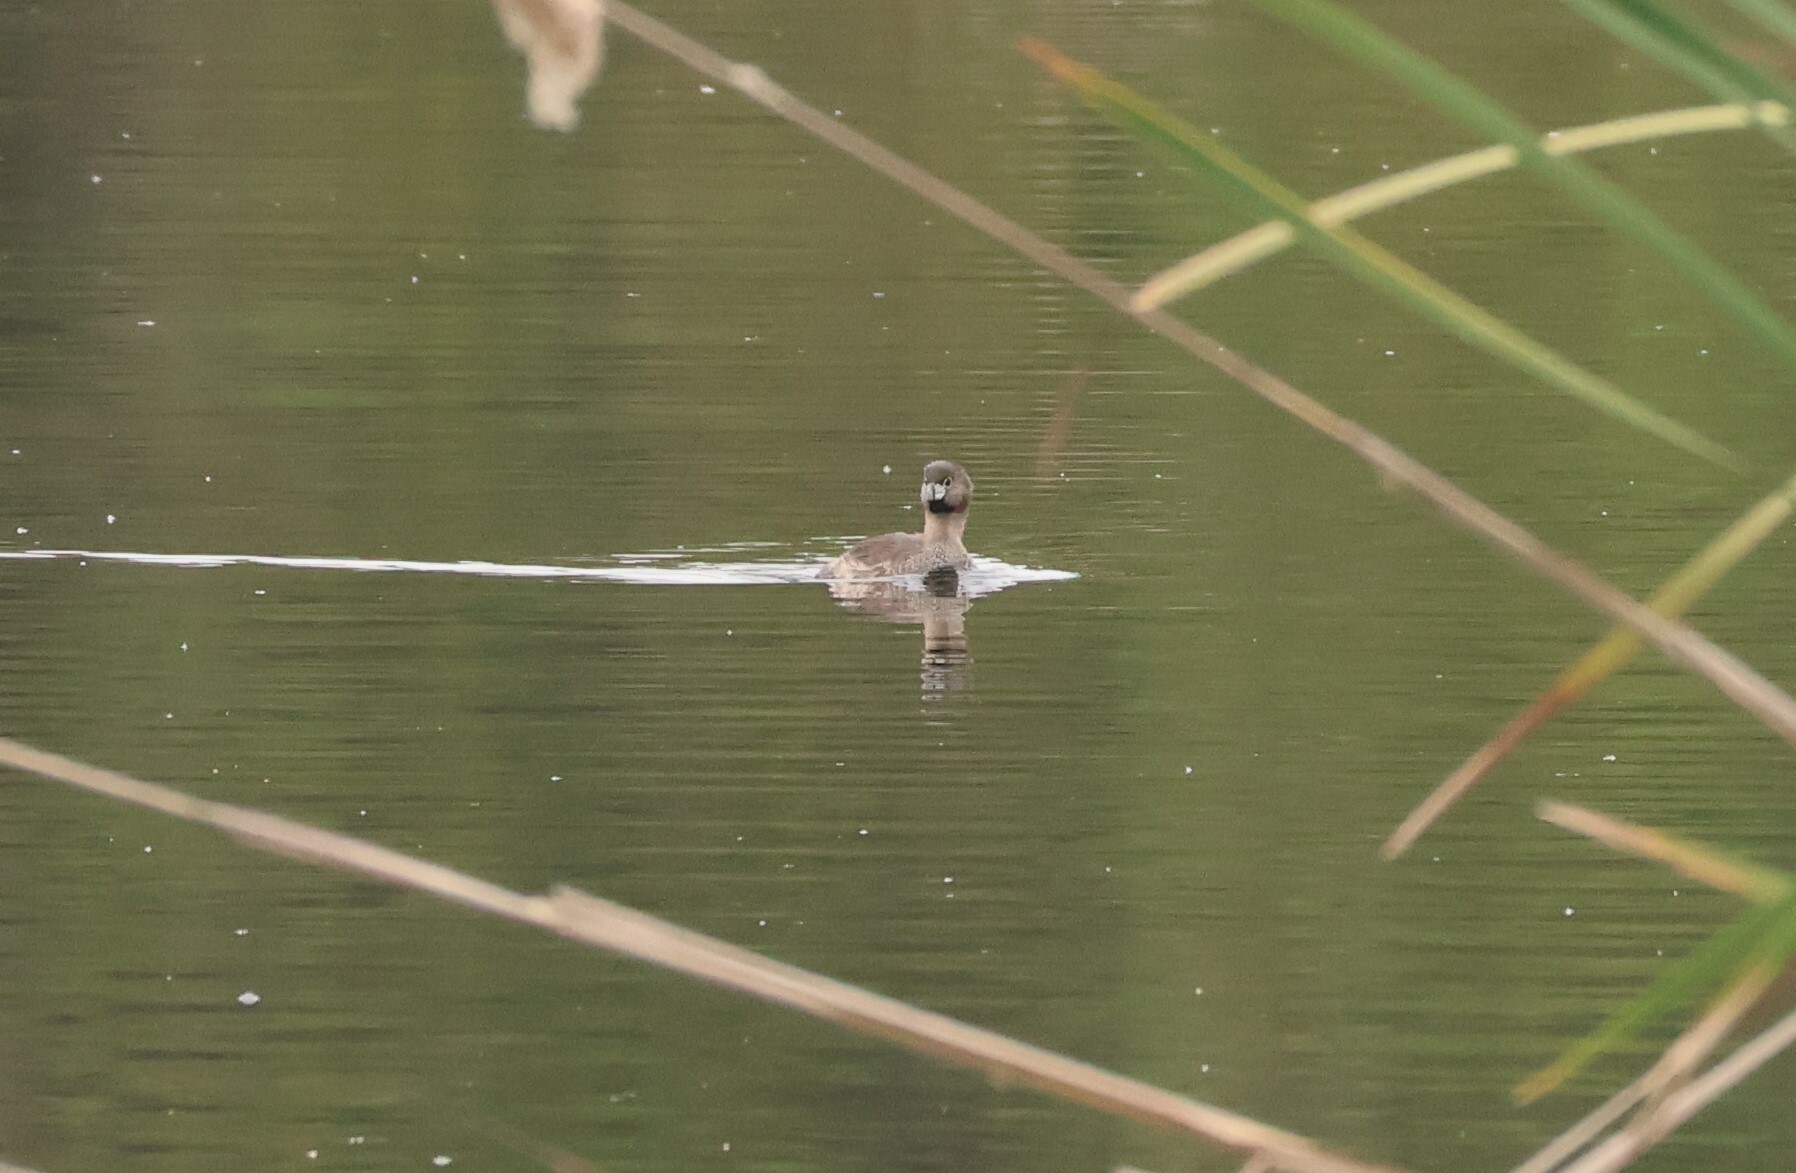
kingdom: Animalia
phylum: Chordata
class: Aves
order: Podicipediformes
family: Podicipedidae
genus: Podilymbus
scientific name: Podilymbus podiceps
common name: Pied-billed grebe
